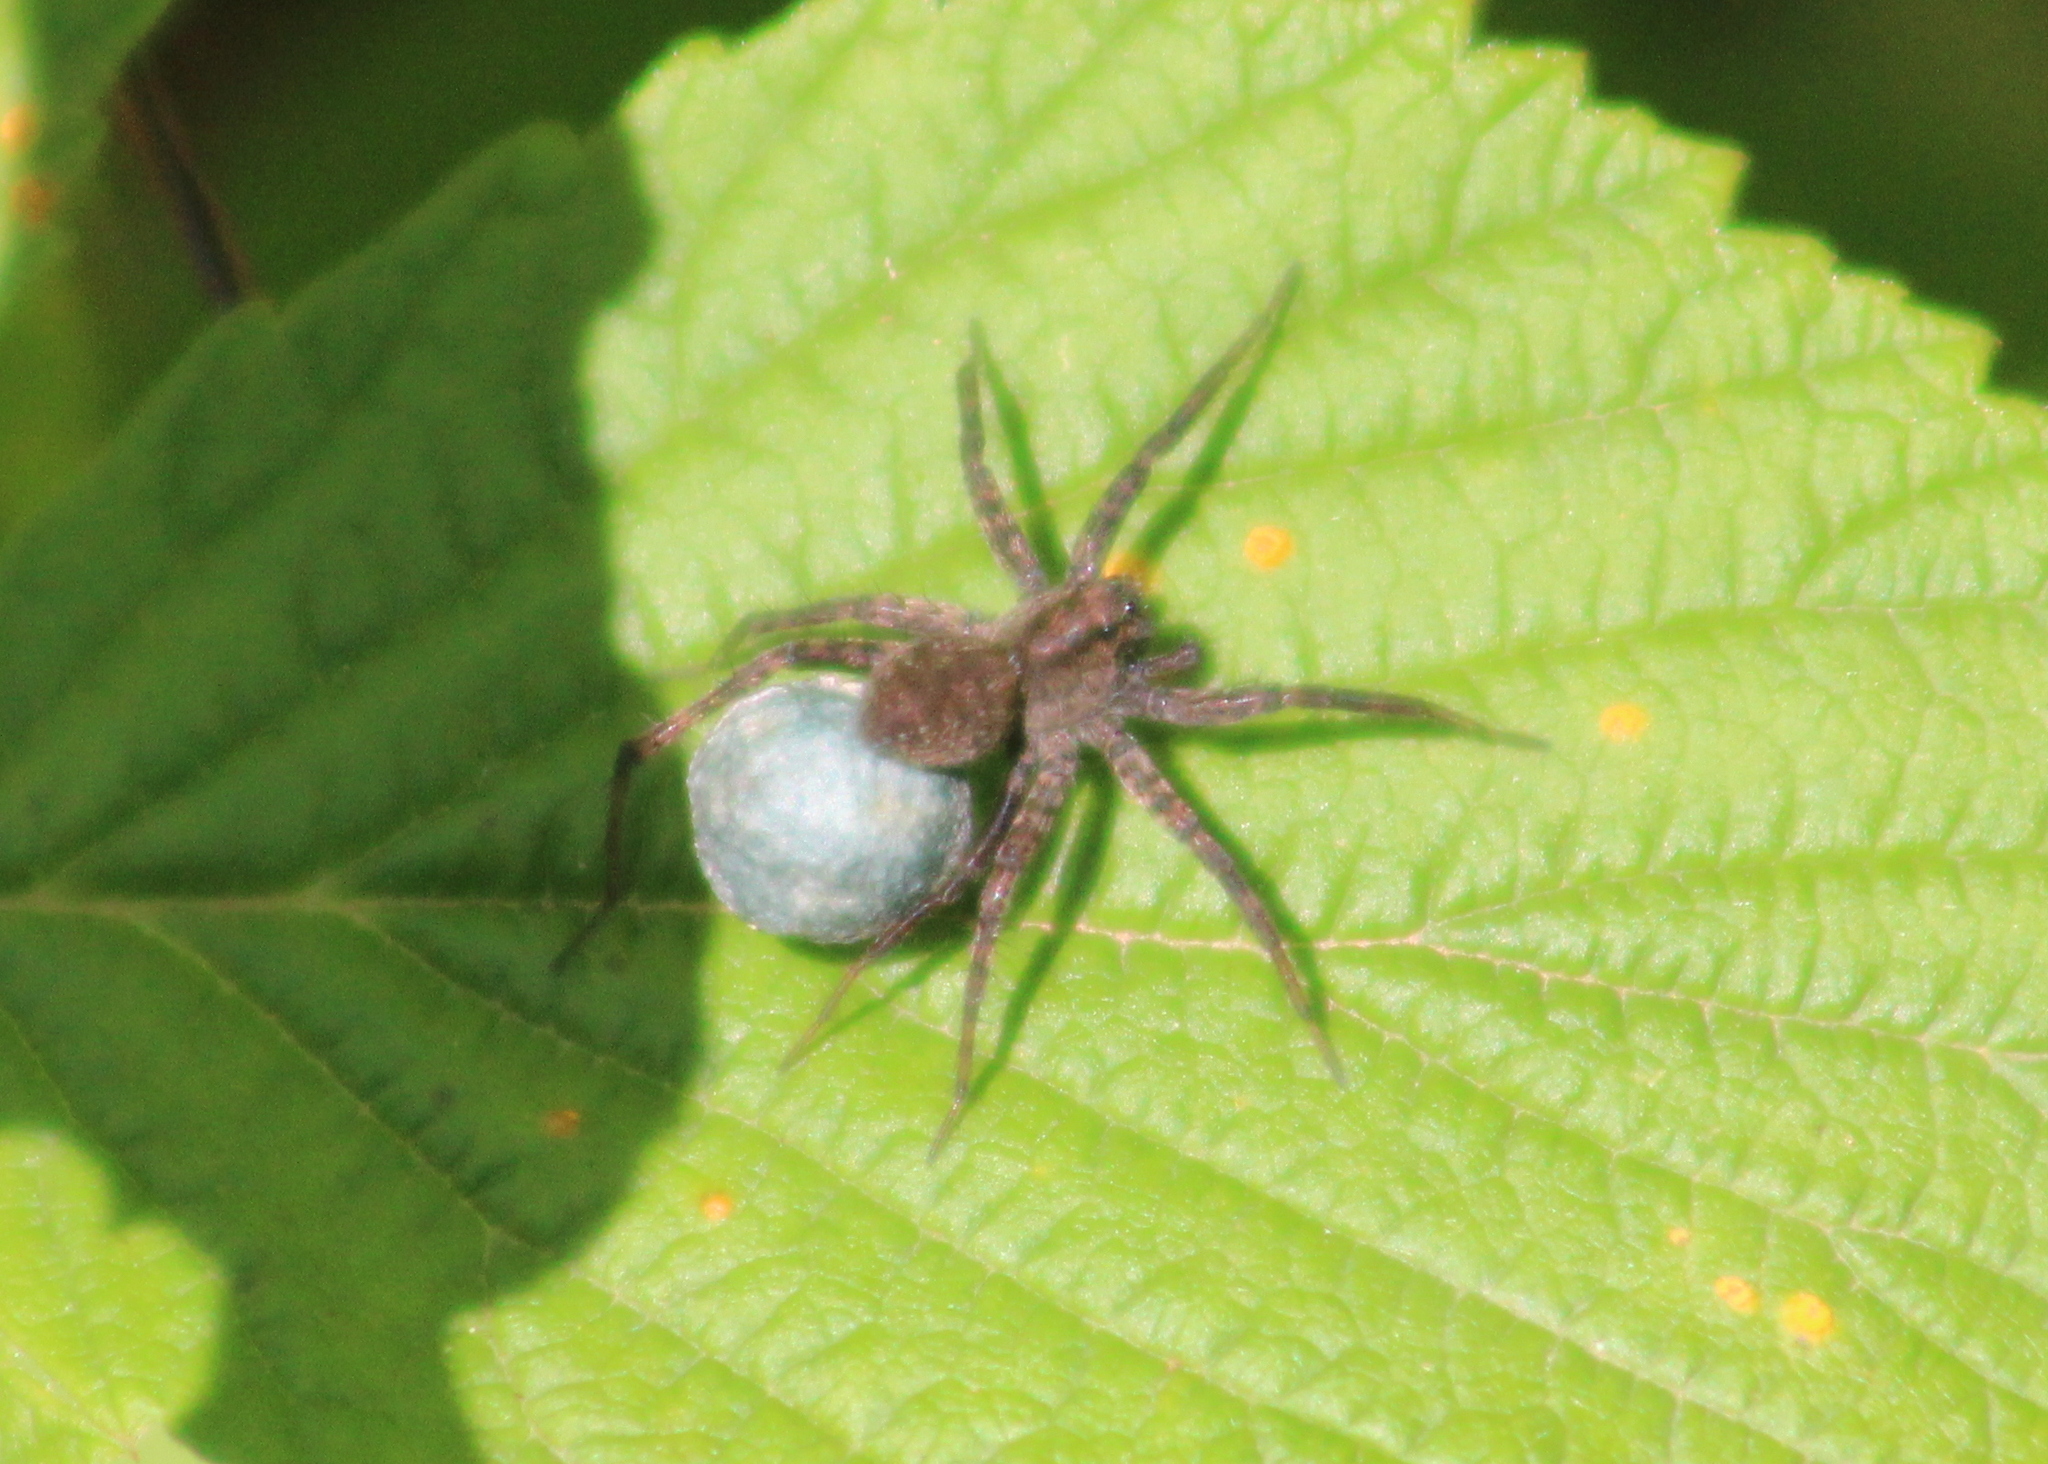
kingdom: Animalia
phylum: Arthropoda
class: Arachnida
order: Araneae
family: Lycosidae
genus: Pardosa
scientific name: Pardosa
